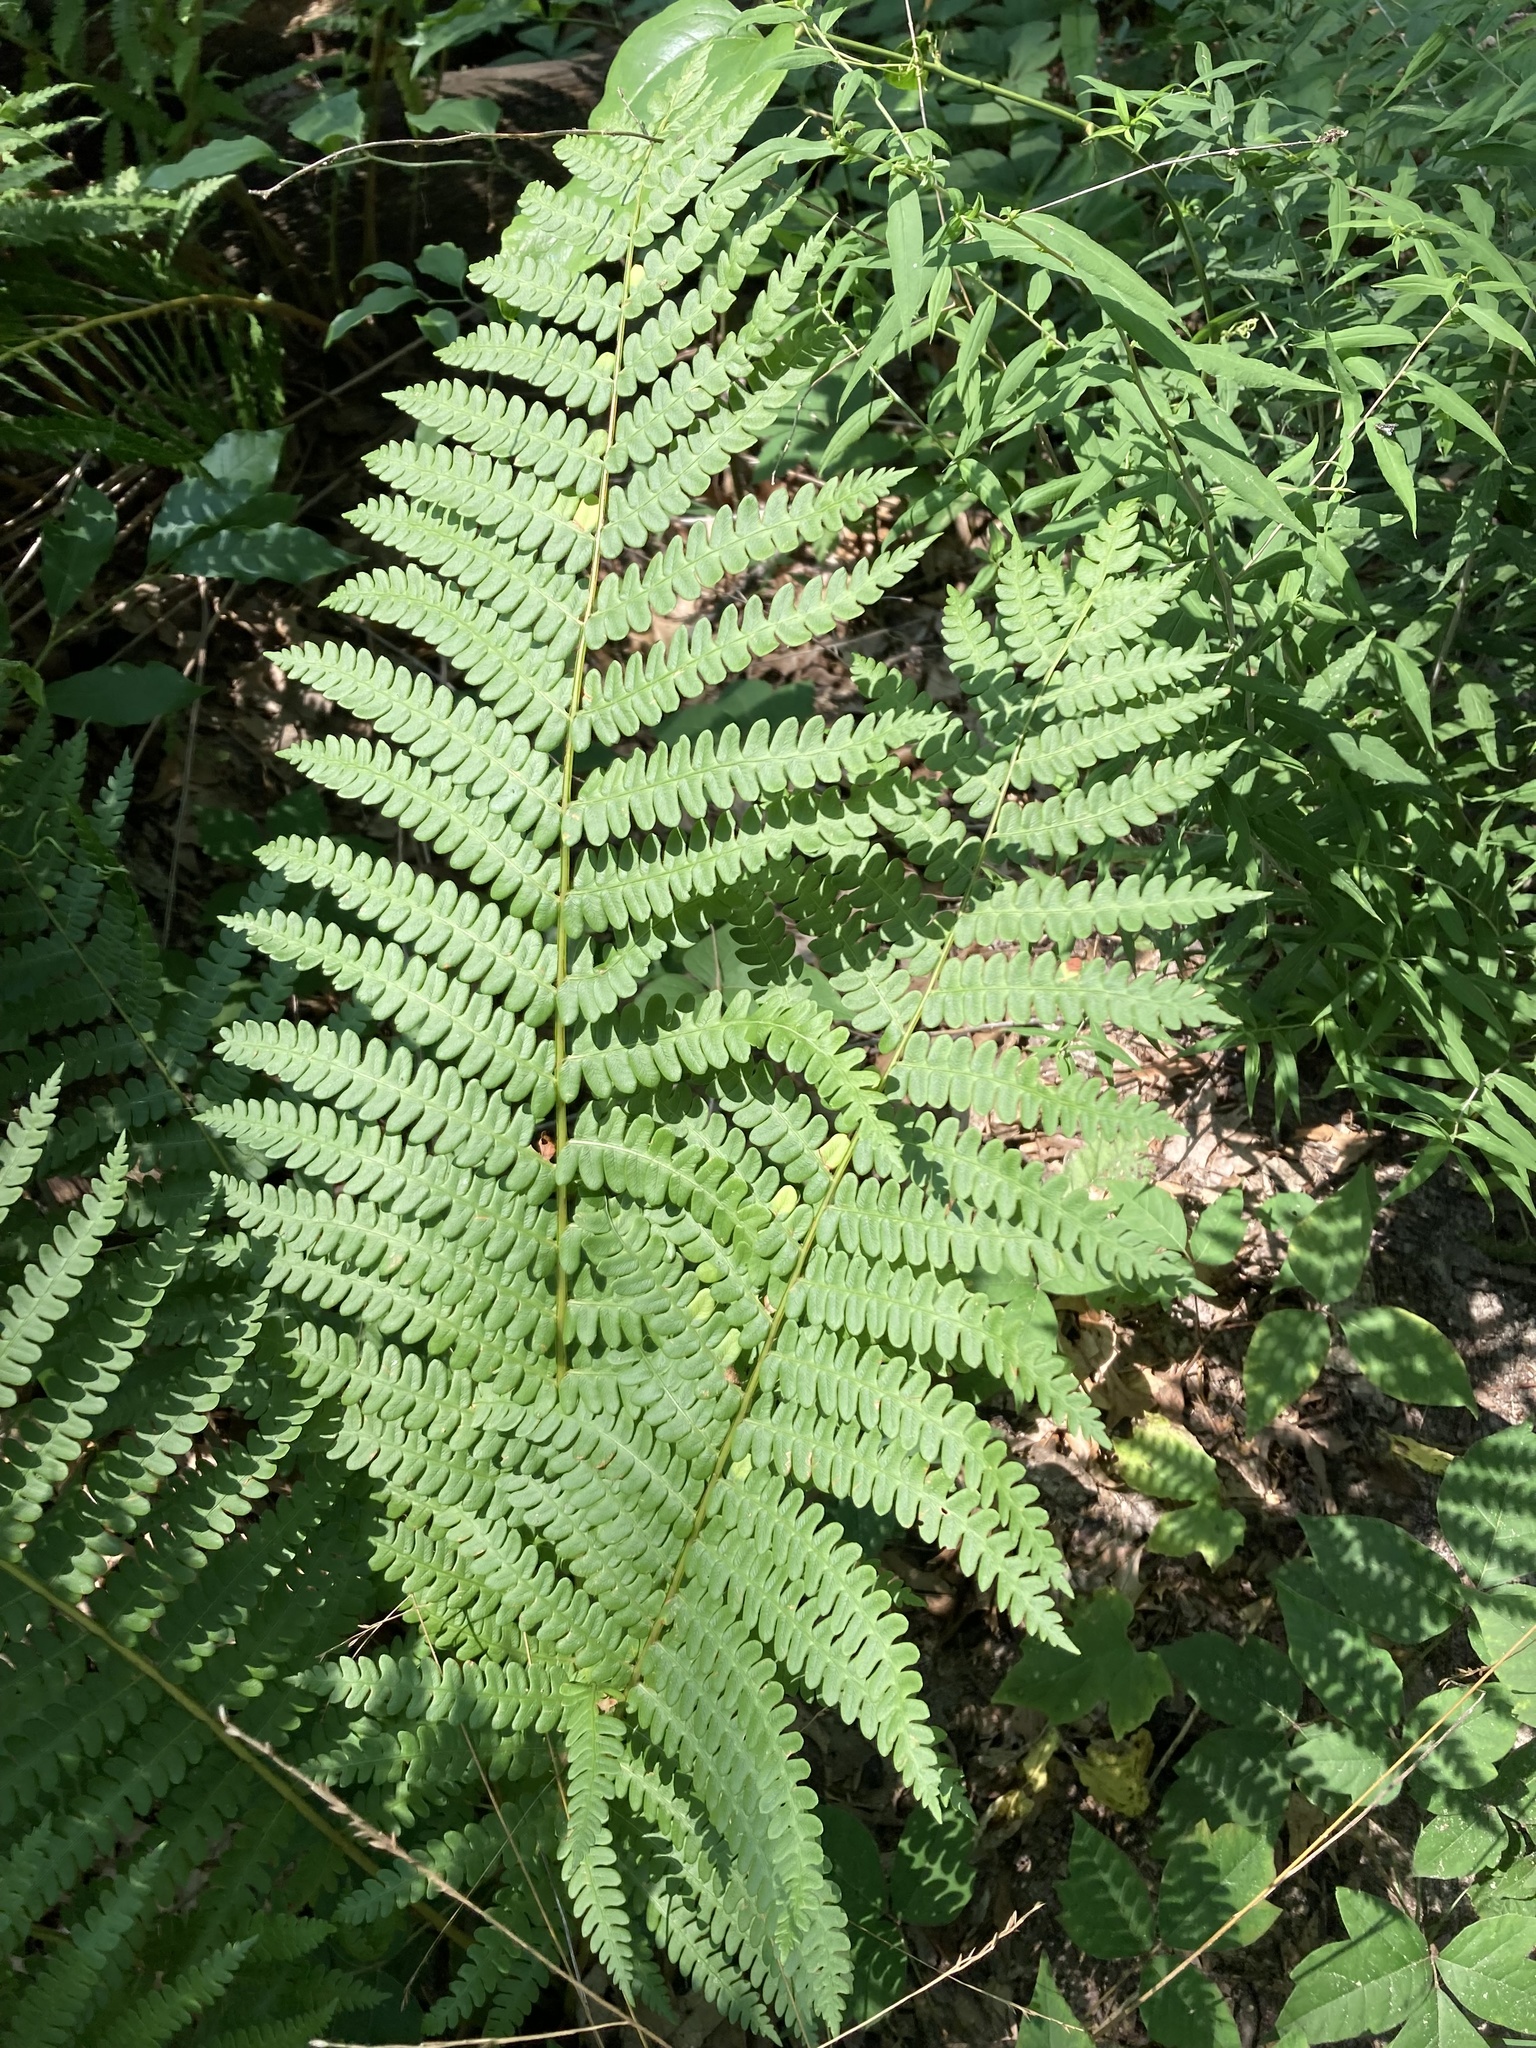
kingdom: Plantae
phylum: Tracheophyta
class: Polypodiopsida
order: Osmundales
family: Osmundaceae
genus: Osmundastrum
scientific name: Osmundastrum cinnamomeum
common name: Cinnamon fern
